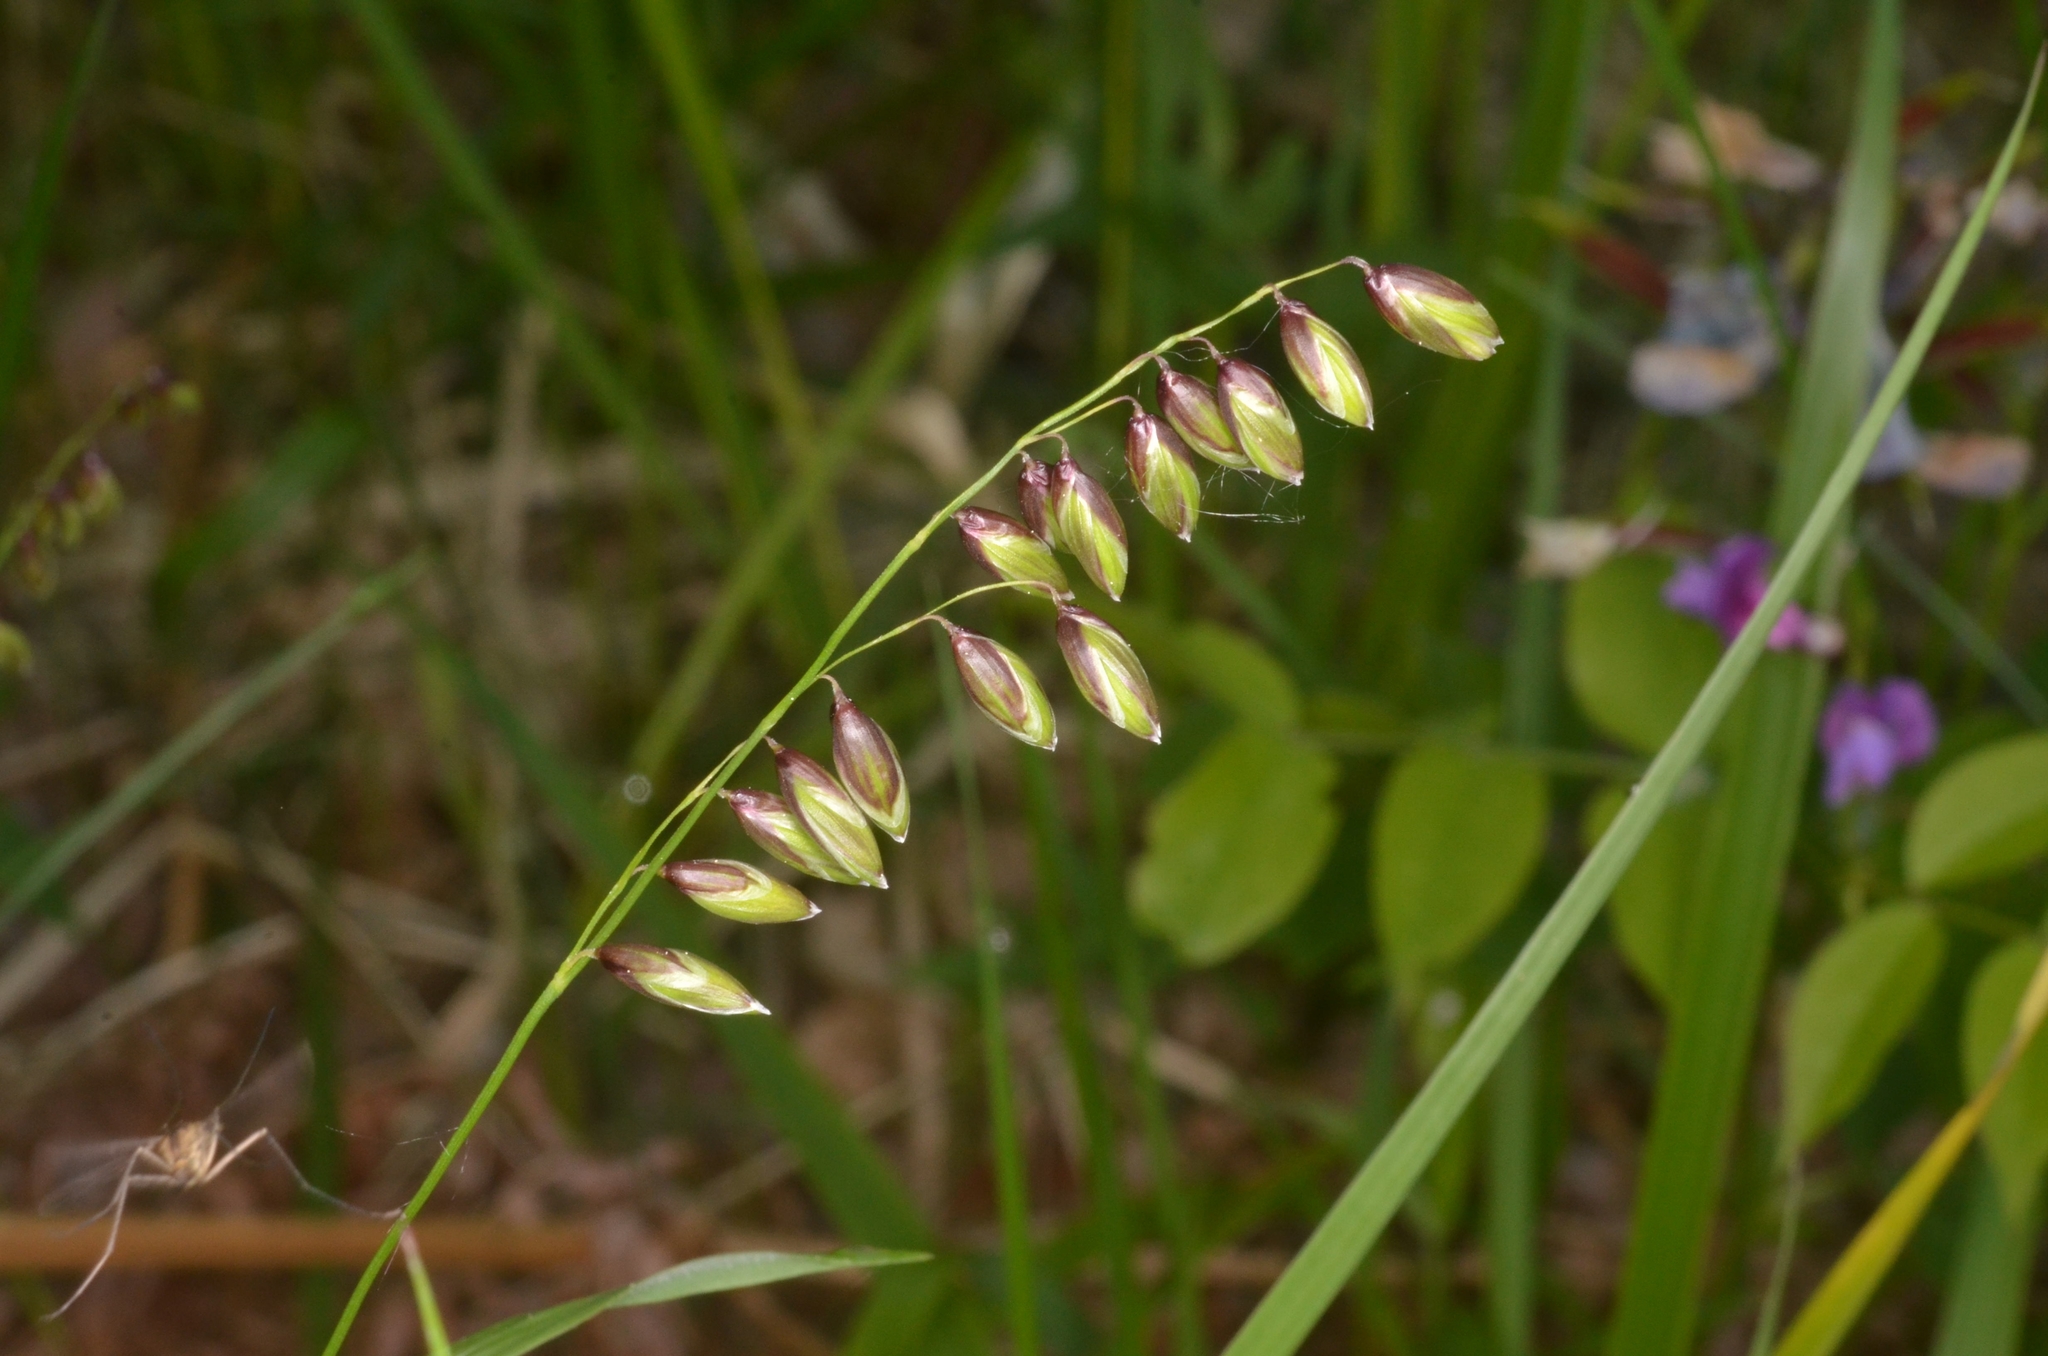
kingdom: Plantae
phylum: Tracheophyta
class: Liliopsida
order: Poales
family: Poaceae
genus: Melica
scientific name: Melica nutans
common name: Mountain melick
